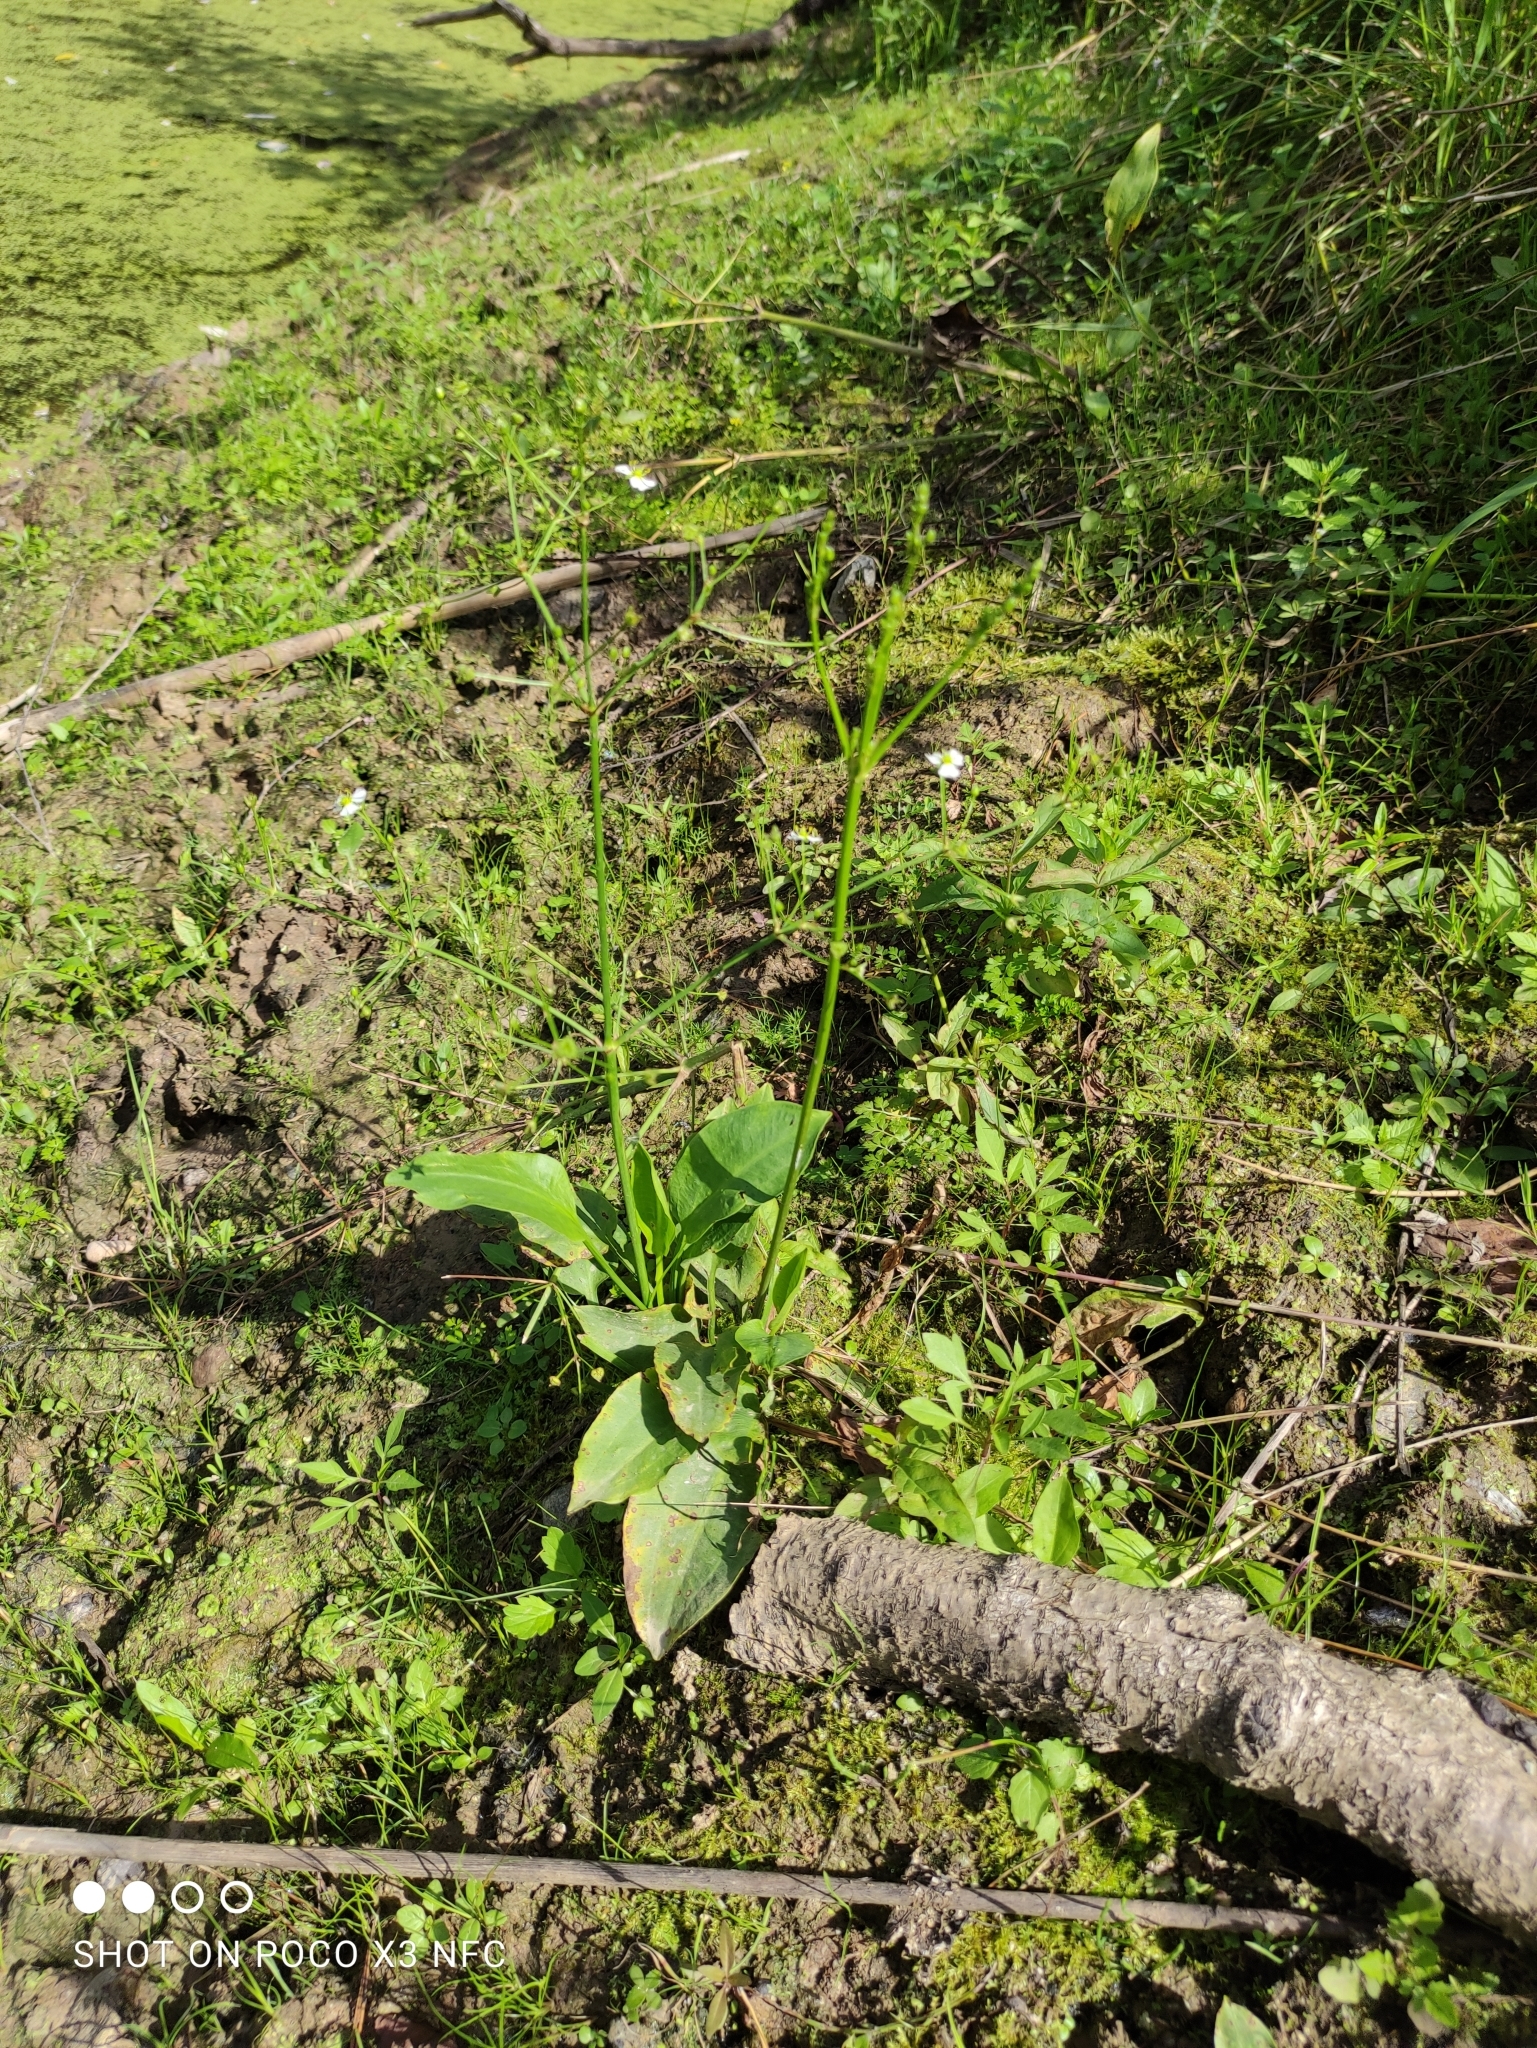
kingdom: Plantae
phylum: Tracheophyta
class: Liliopsida
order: Alismatales
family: Alismataceae
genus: Alisma
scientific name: Alisma plantago-aquatica
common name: Water-plantain
